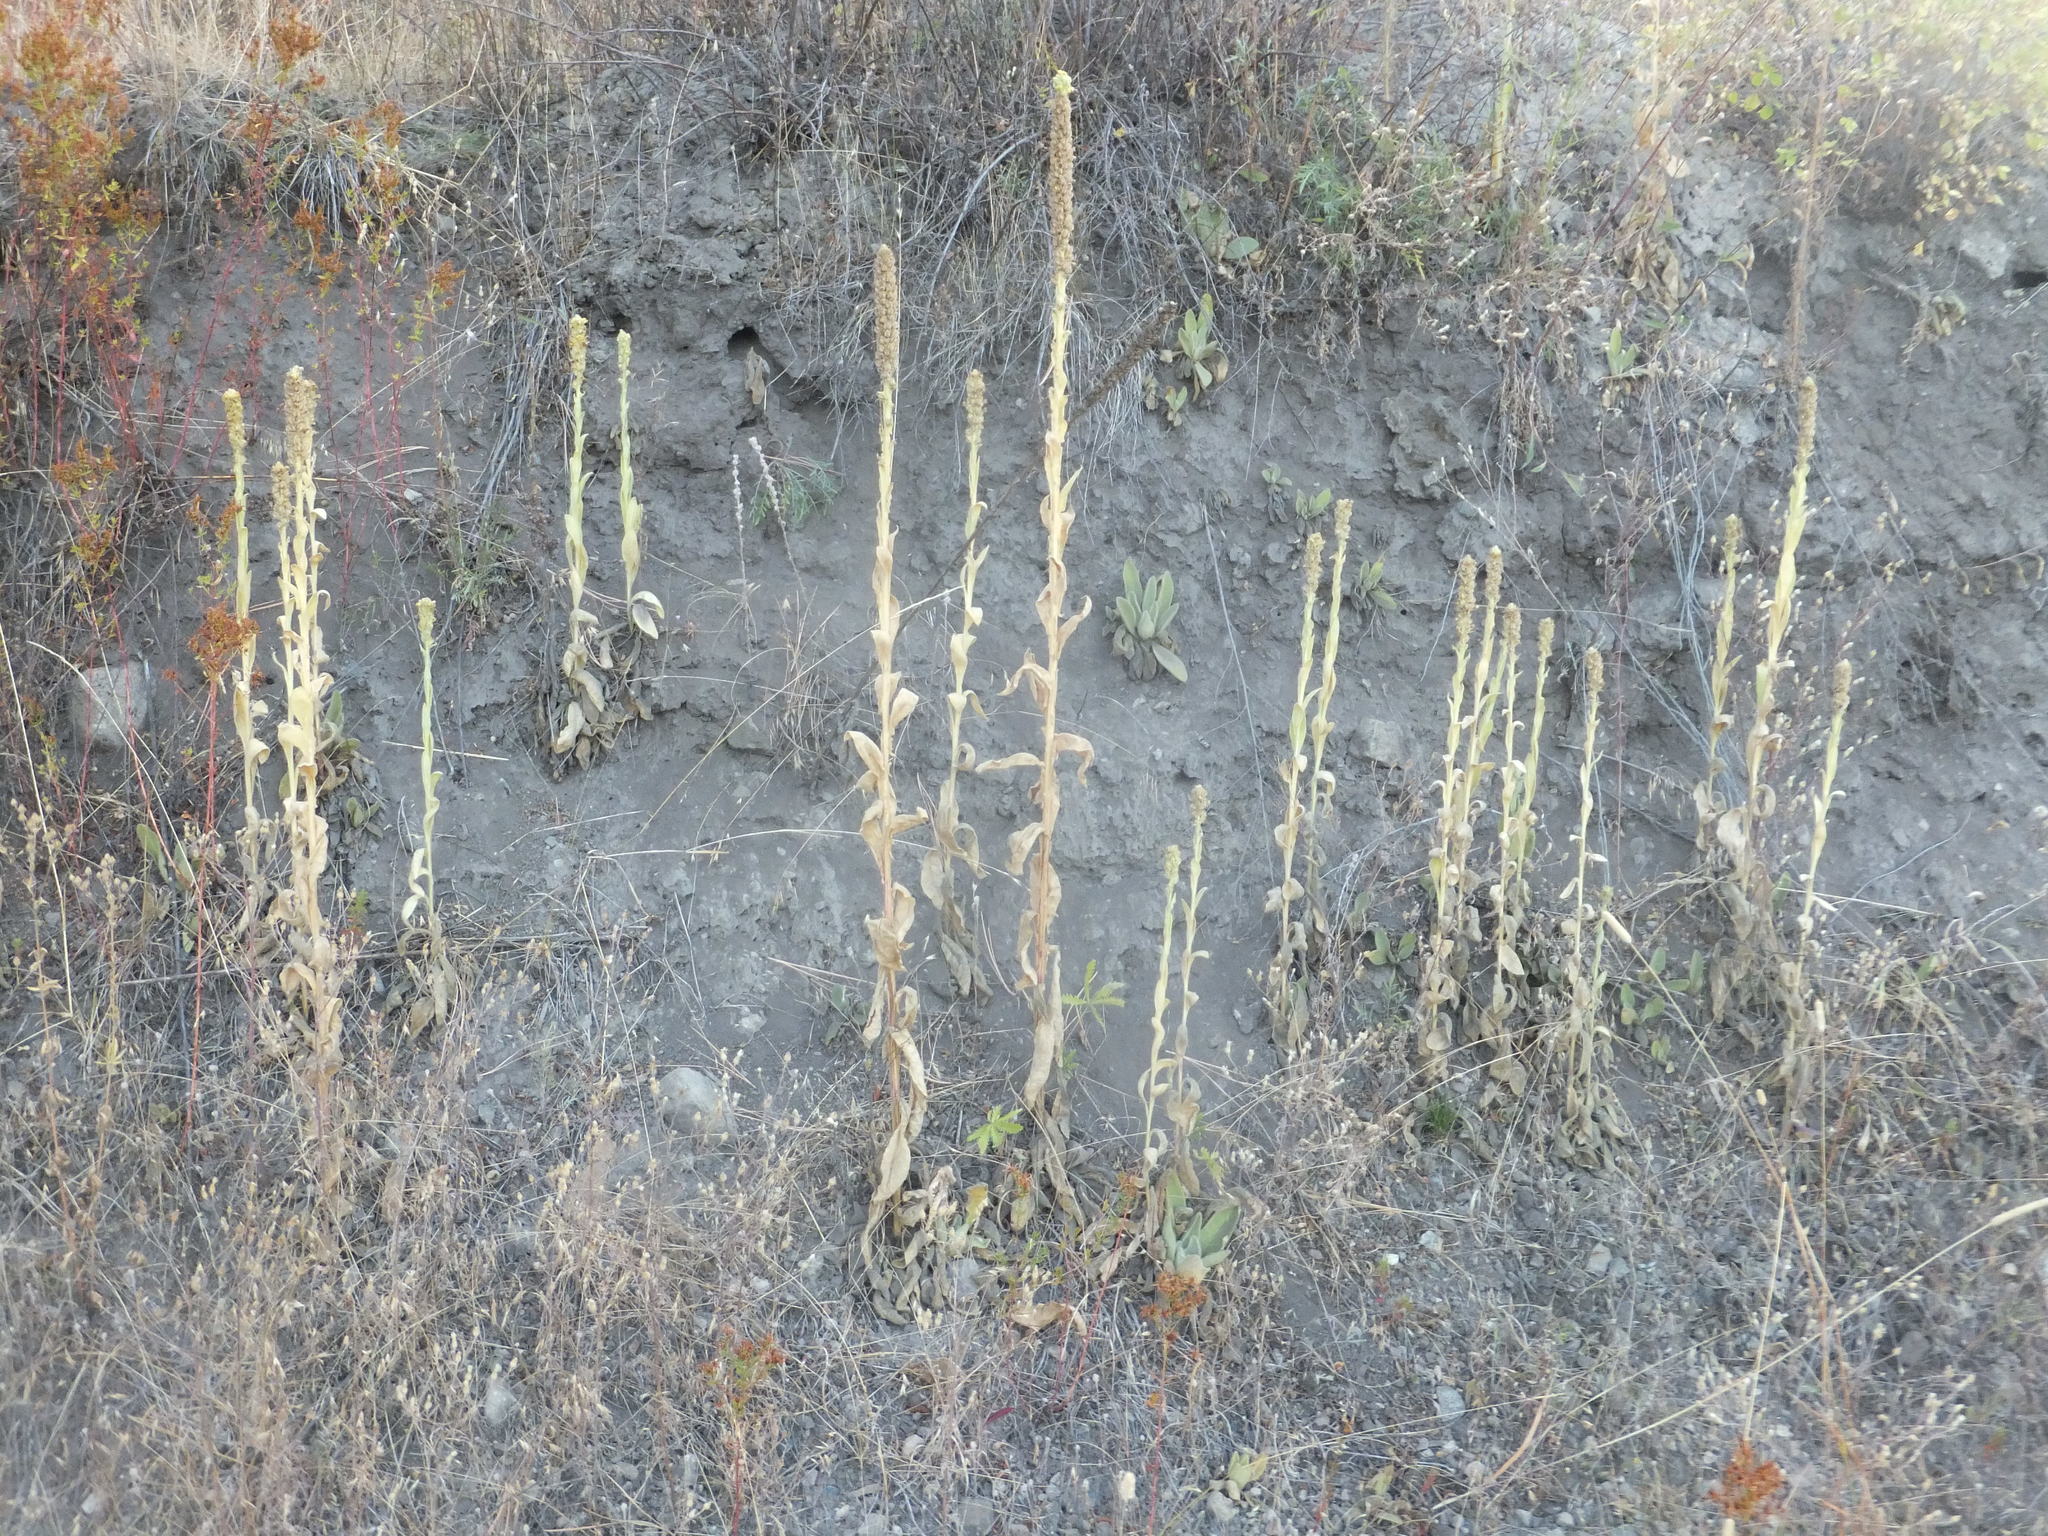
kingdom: Plantae
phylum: Tracheophyta
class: Magnoliopsida
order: Lamiales
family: Scrophulariaceae
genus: Verbascum
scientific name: Verbascum thapsus
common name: Common mullein
